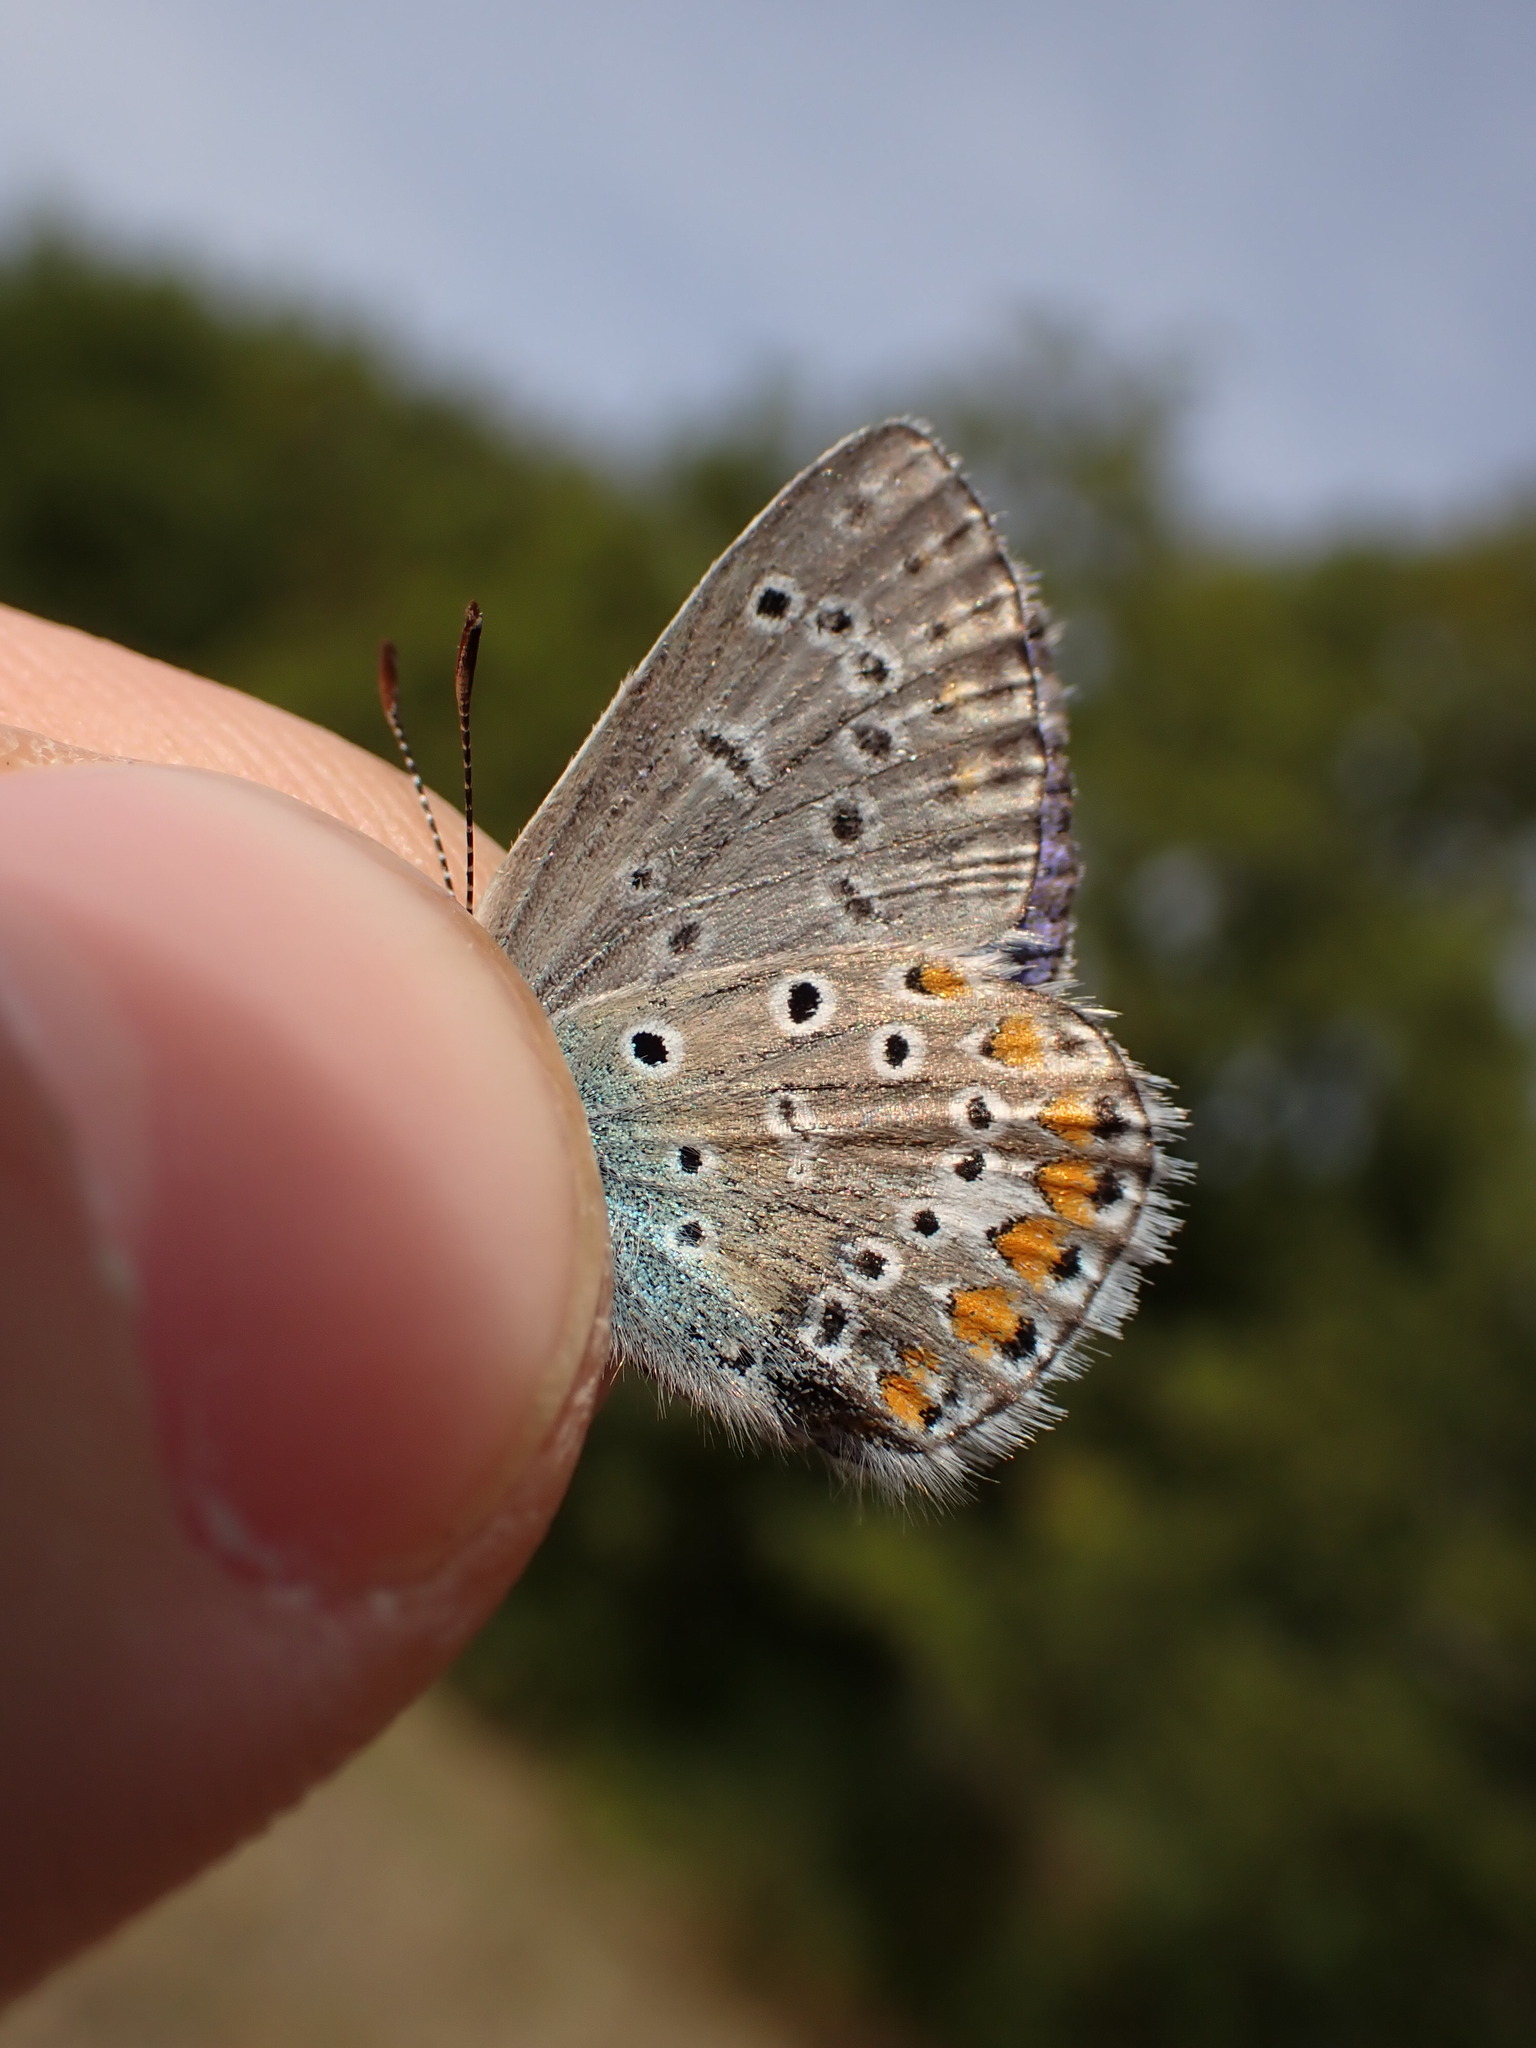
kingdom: Animalia
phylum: Arthropoda
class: Insecta
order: Lepidoptera
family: Lycaenidae
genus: Polyommatus
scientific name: Polyommatus icarus
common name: Common blue
